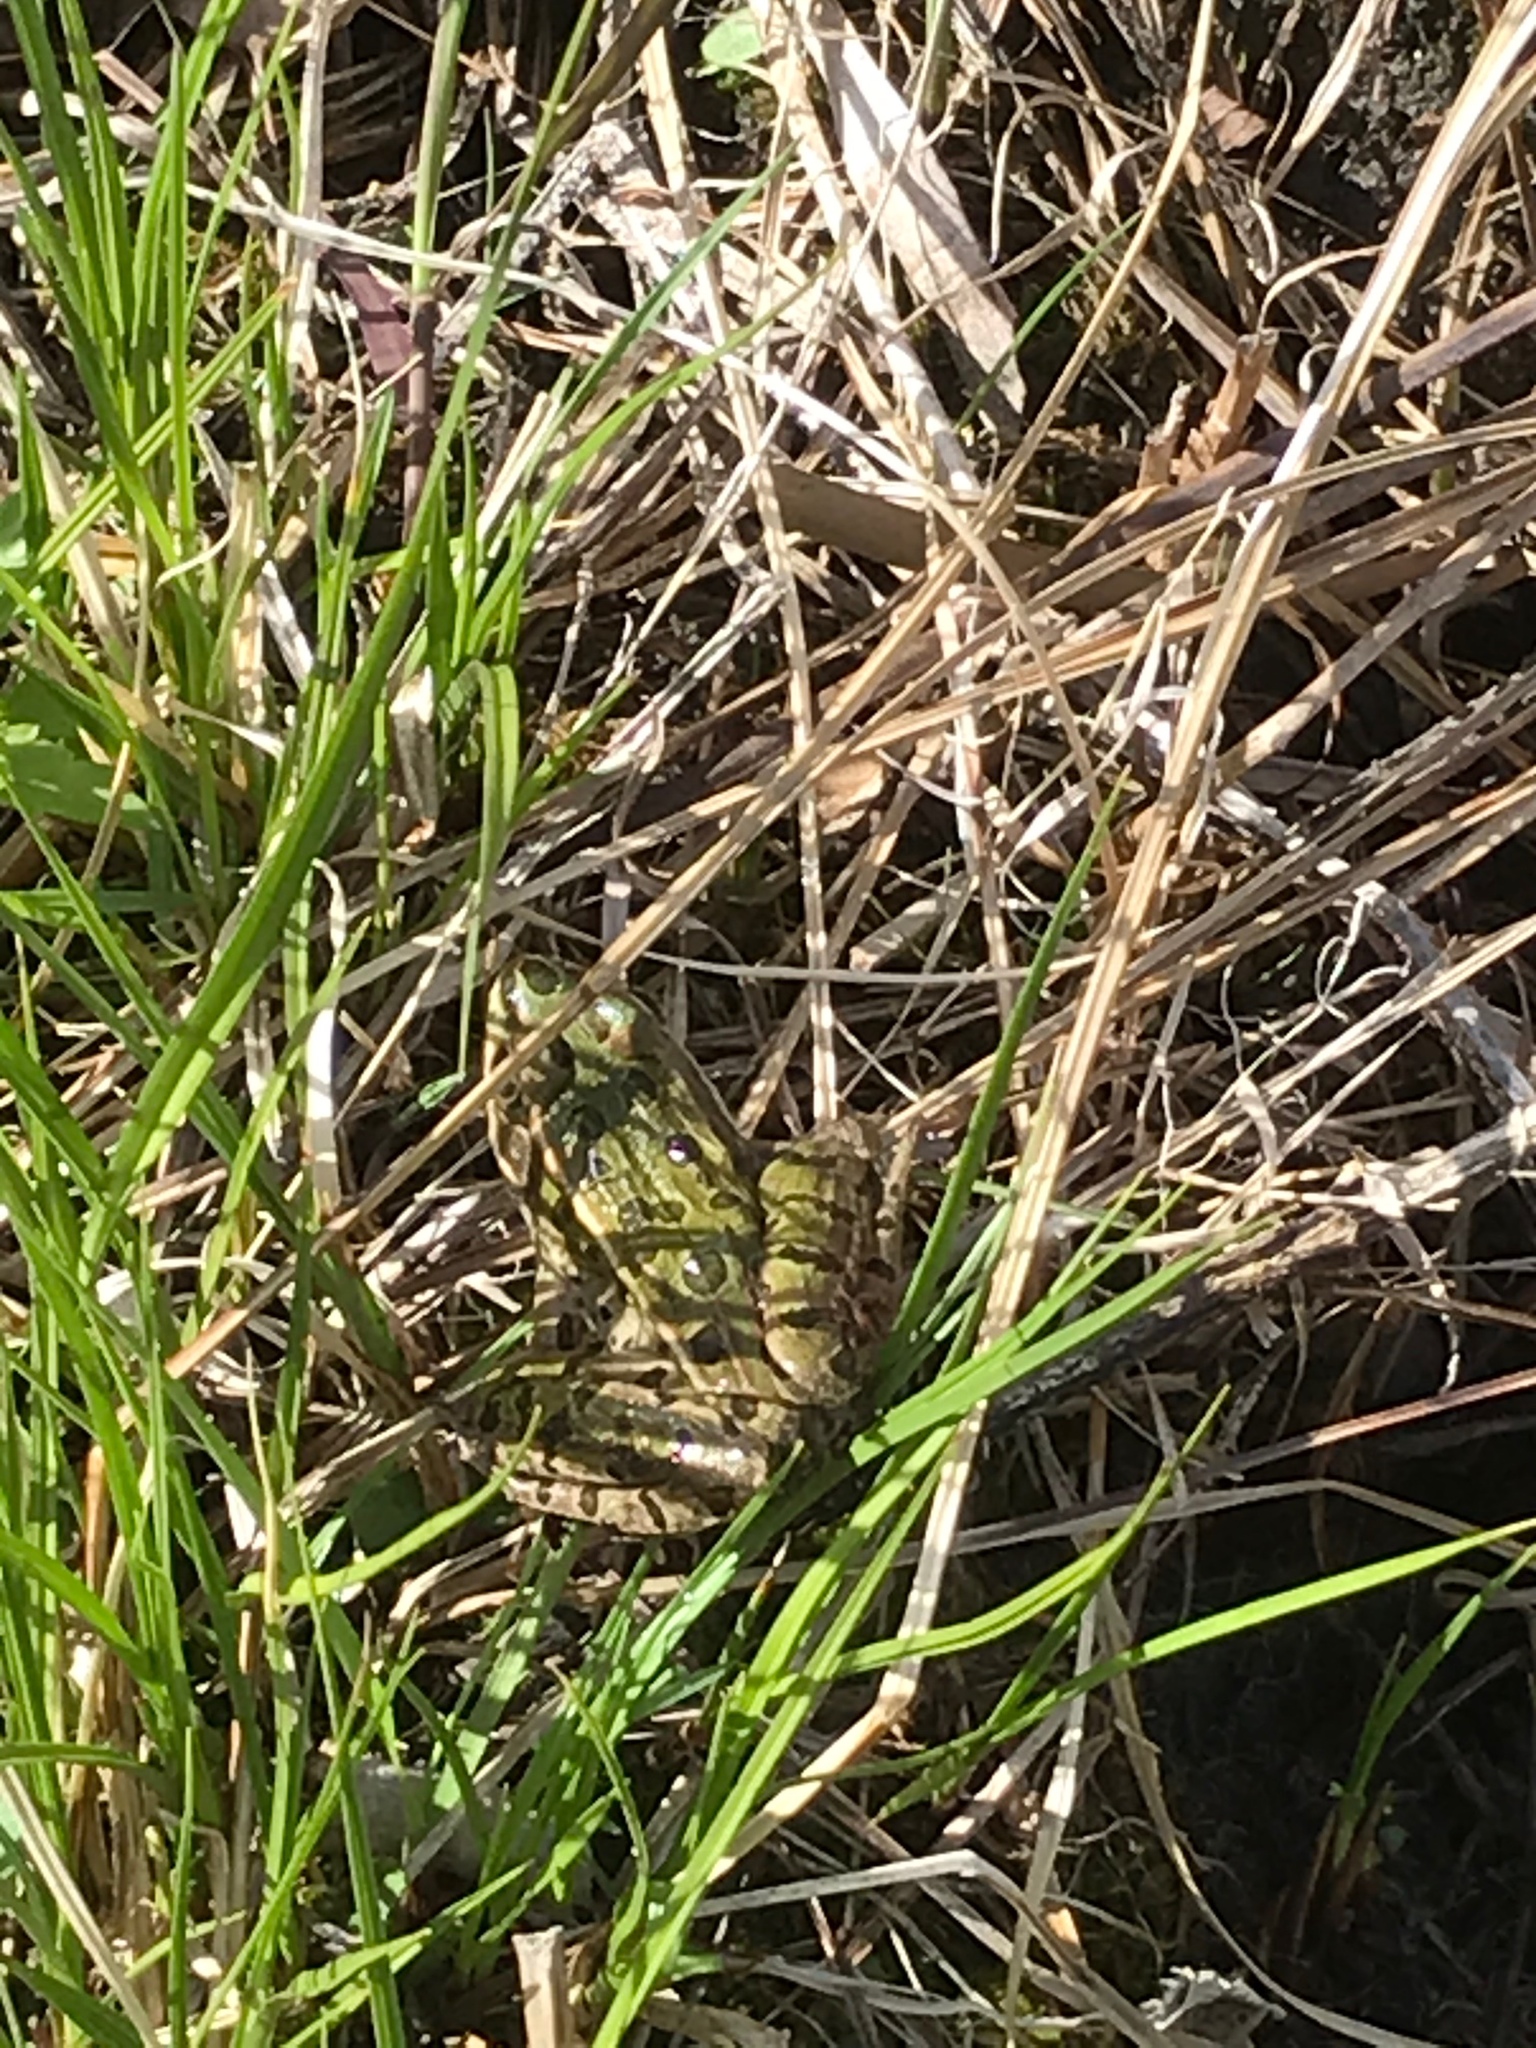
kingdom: Animalia
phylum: Chordata
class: Amphibia
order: Anura
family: Ranidae
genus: Lithobates
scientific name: Lithobates pipiens
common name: Northern leopard frog
